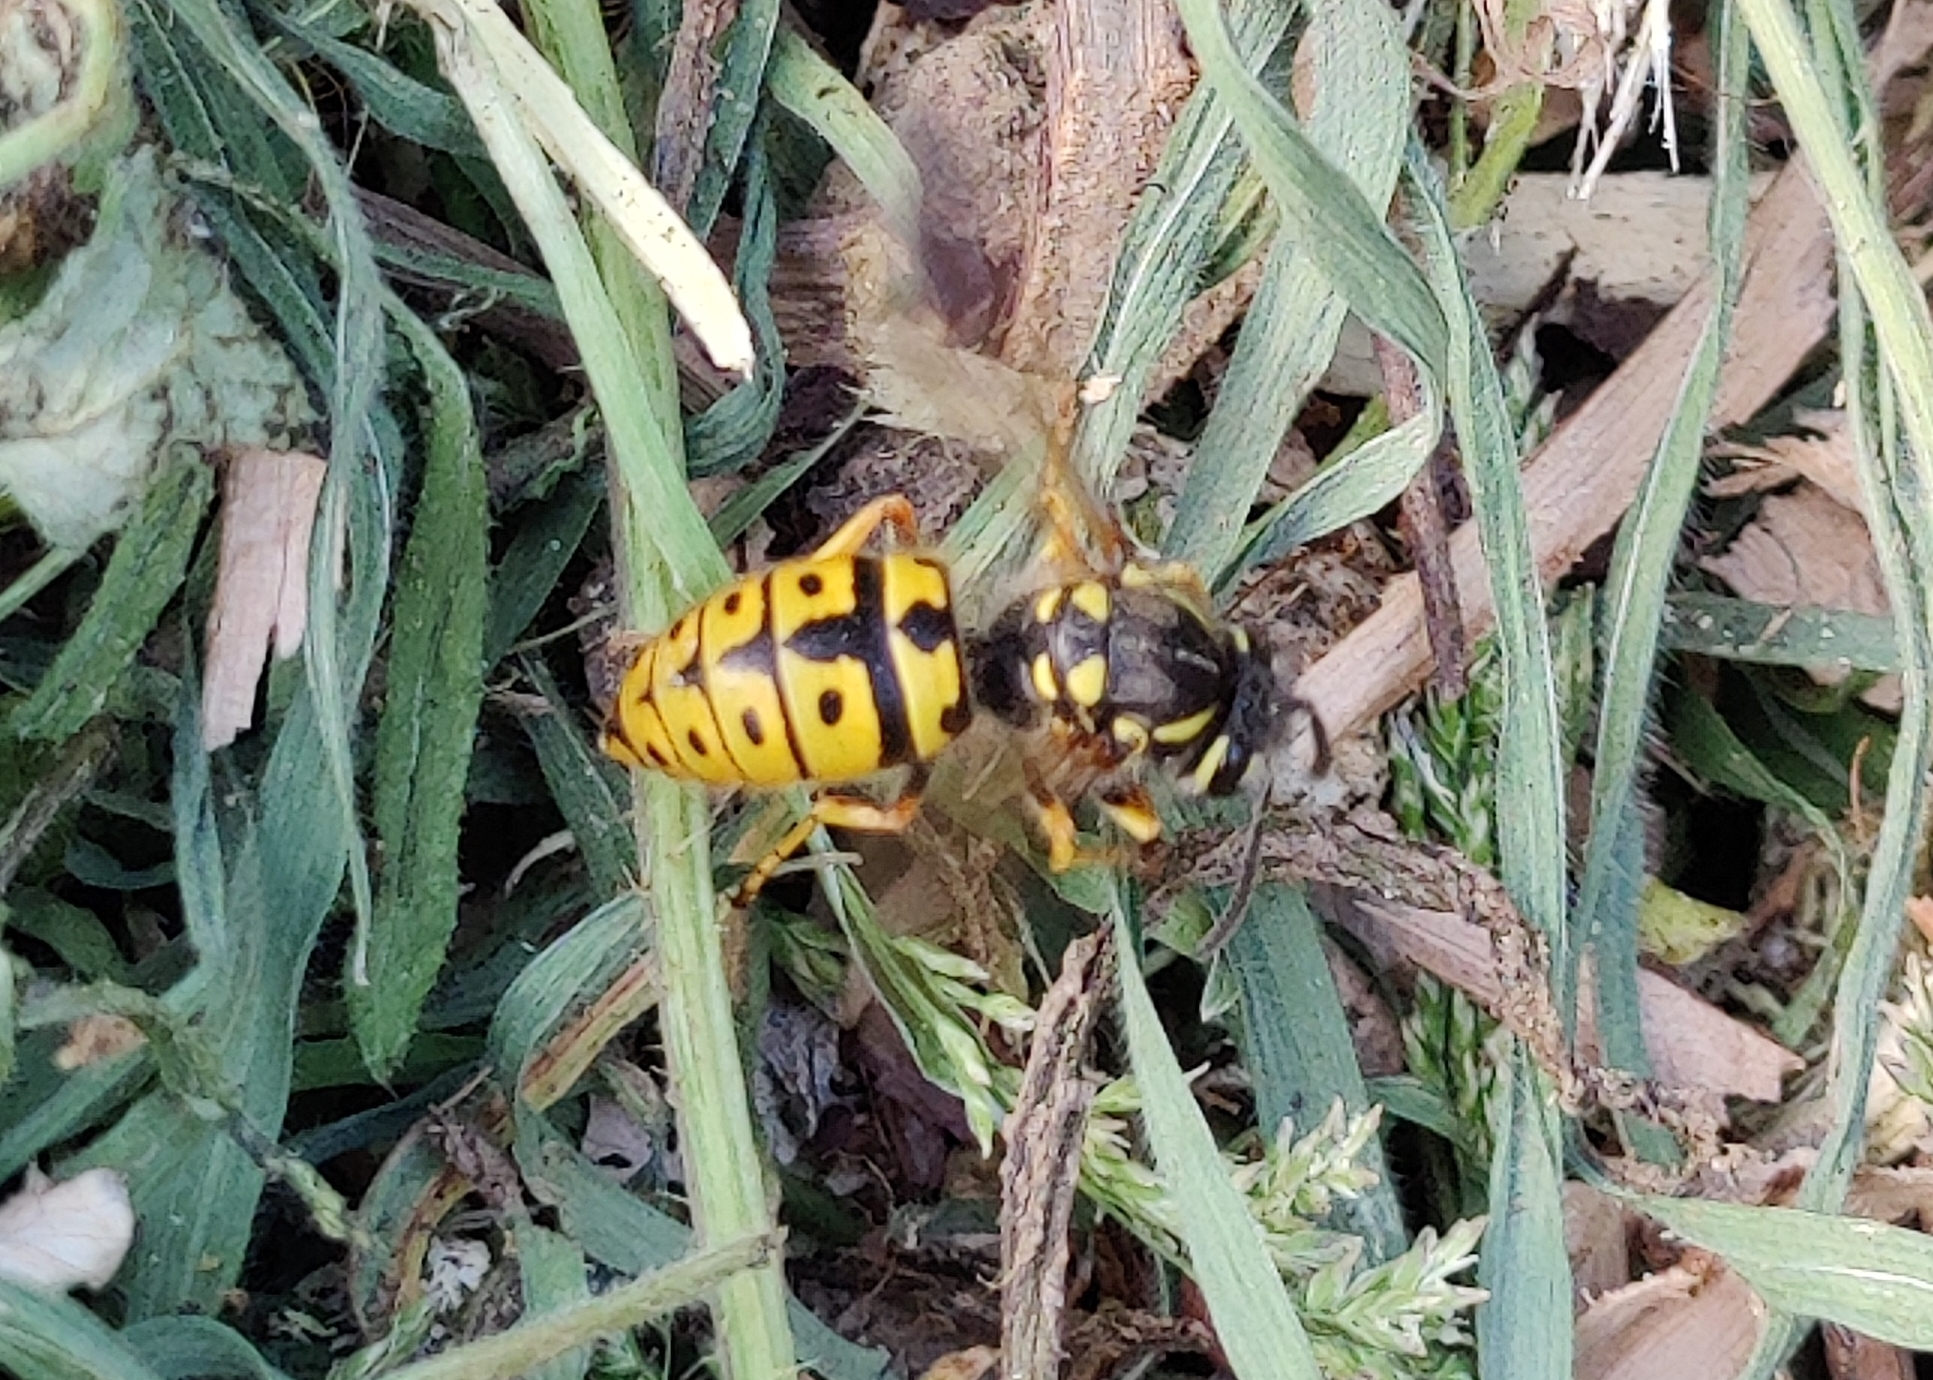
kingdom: Animalia
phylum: Arthropoda
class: Insecta
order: Hymenoptera
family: Vespidae
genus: Vespula
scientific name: Vespula germanica
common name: German wasp
